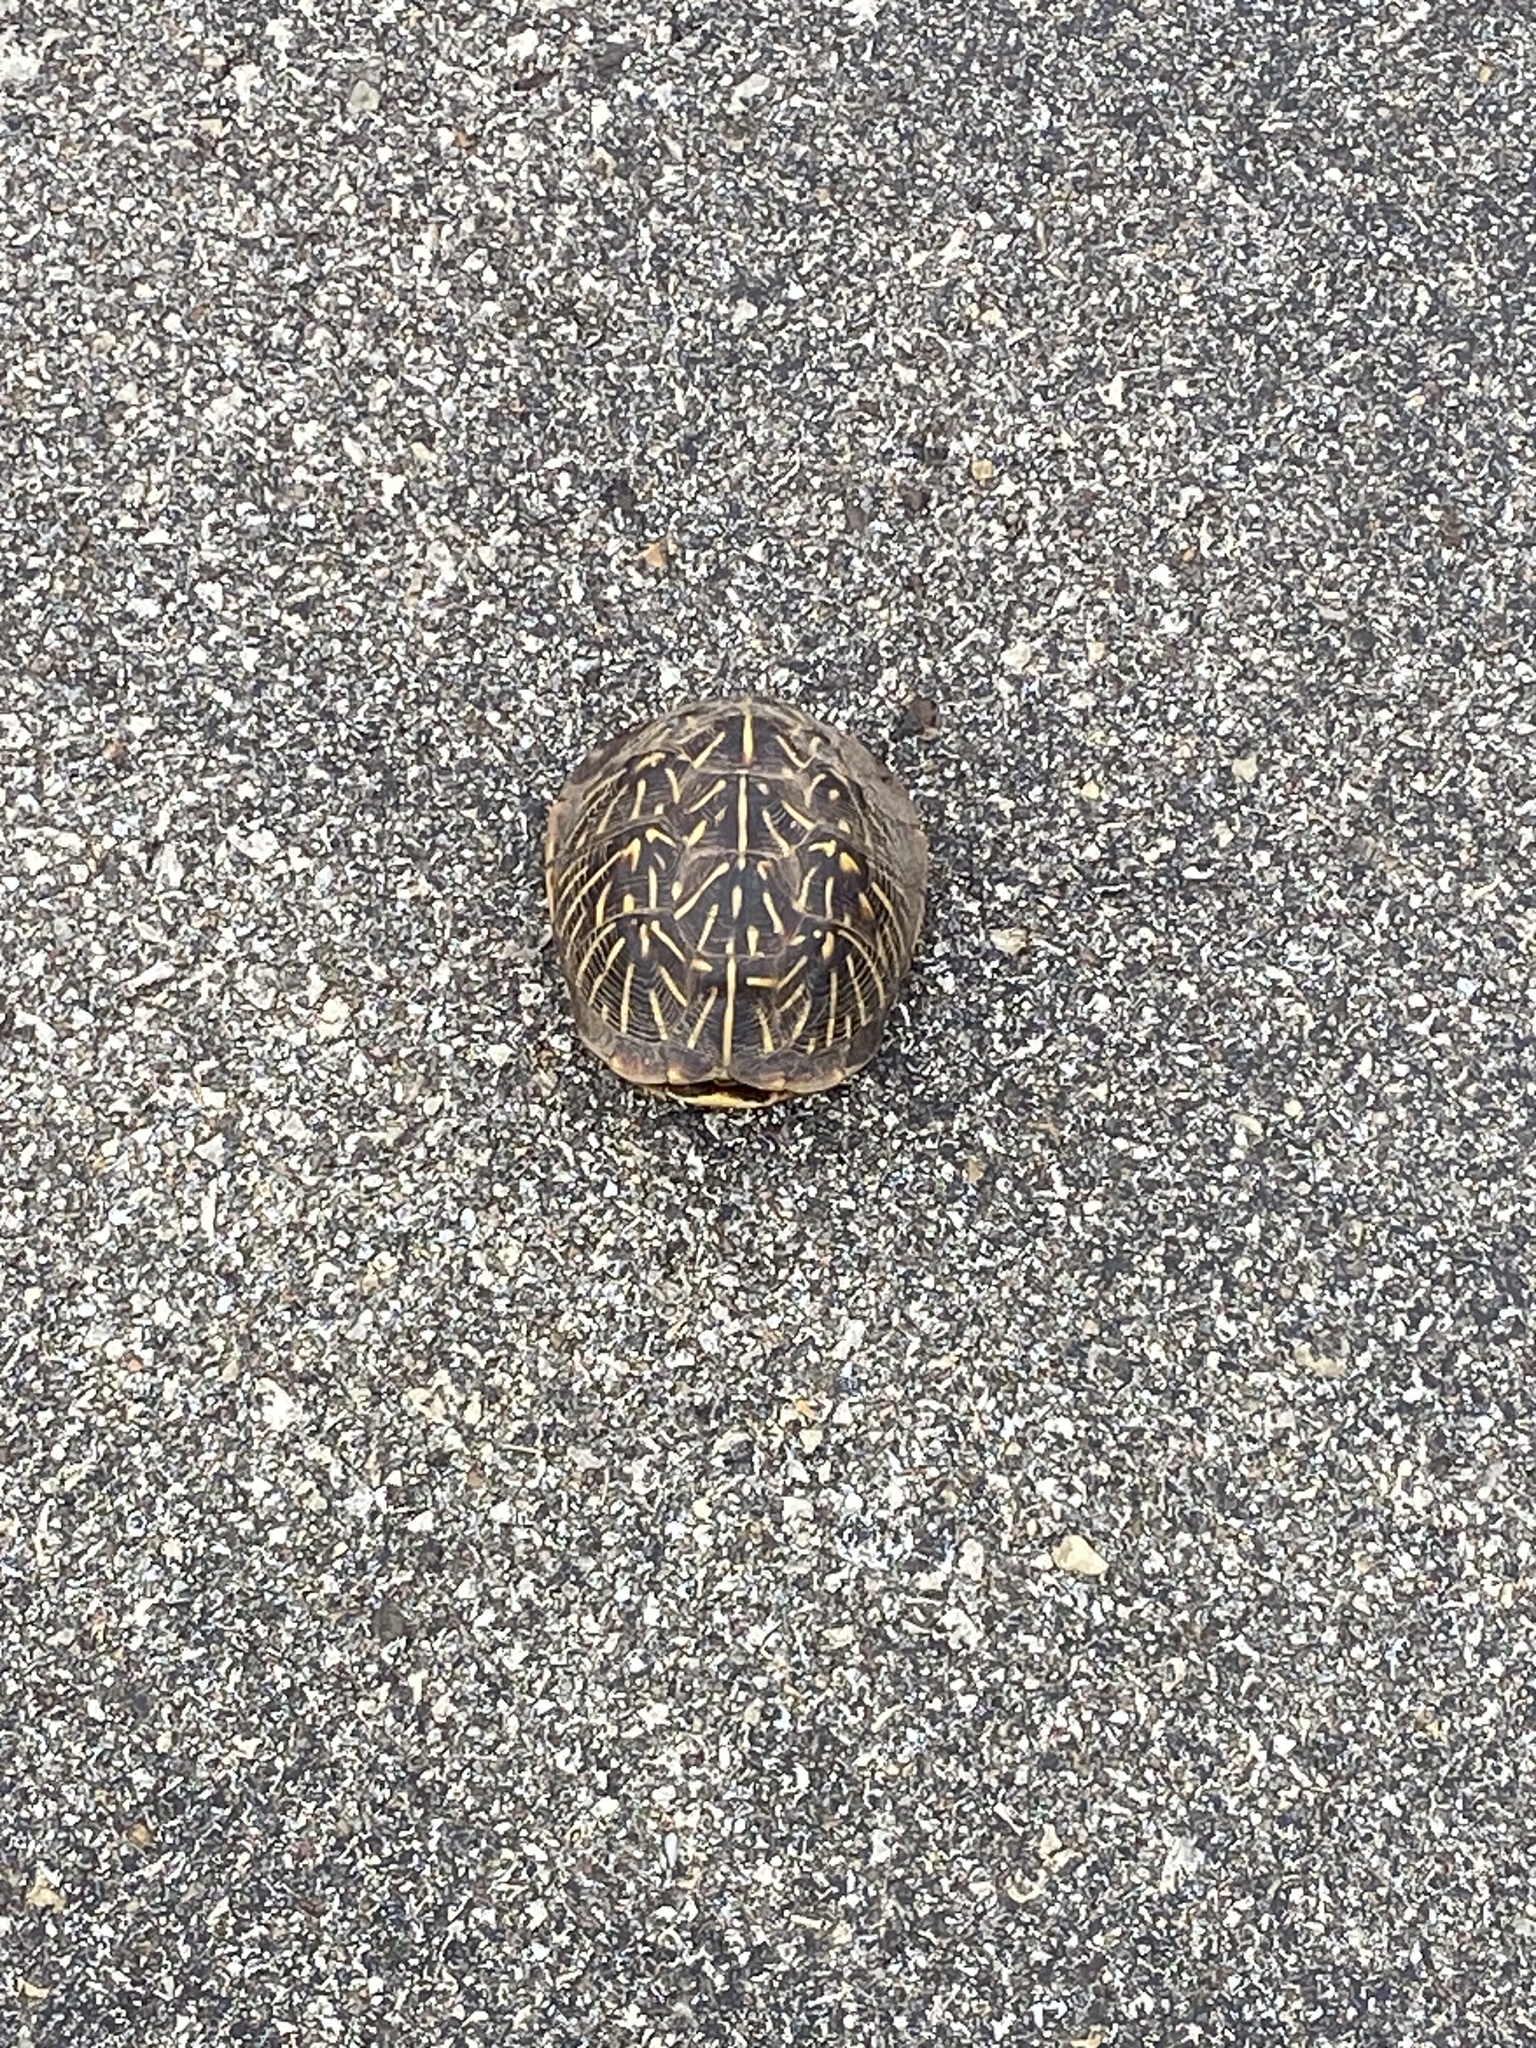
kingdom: Animalia
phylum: Chordata
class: Testudines
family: Emydidae
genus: Terrapene
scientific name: Terrapene ornata
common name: Western box turtle
